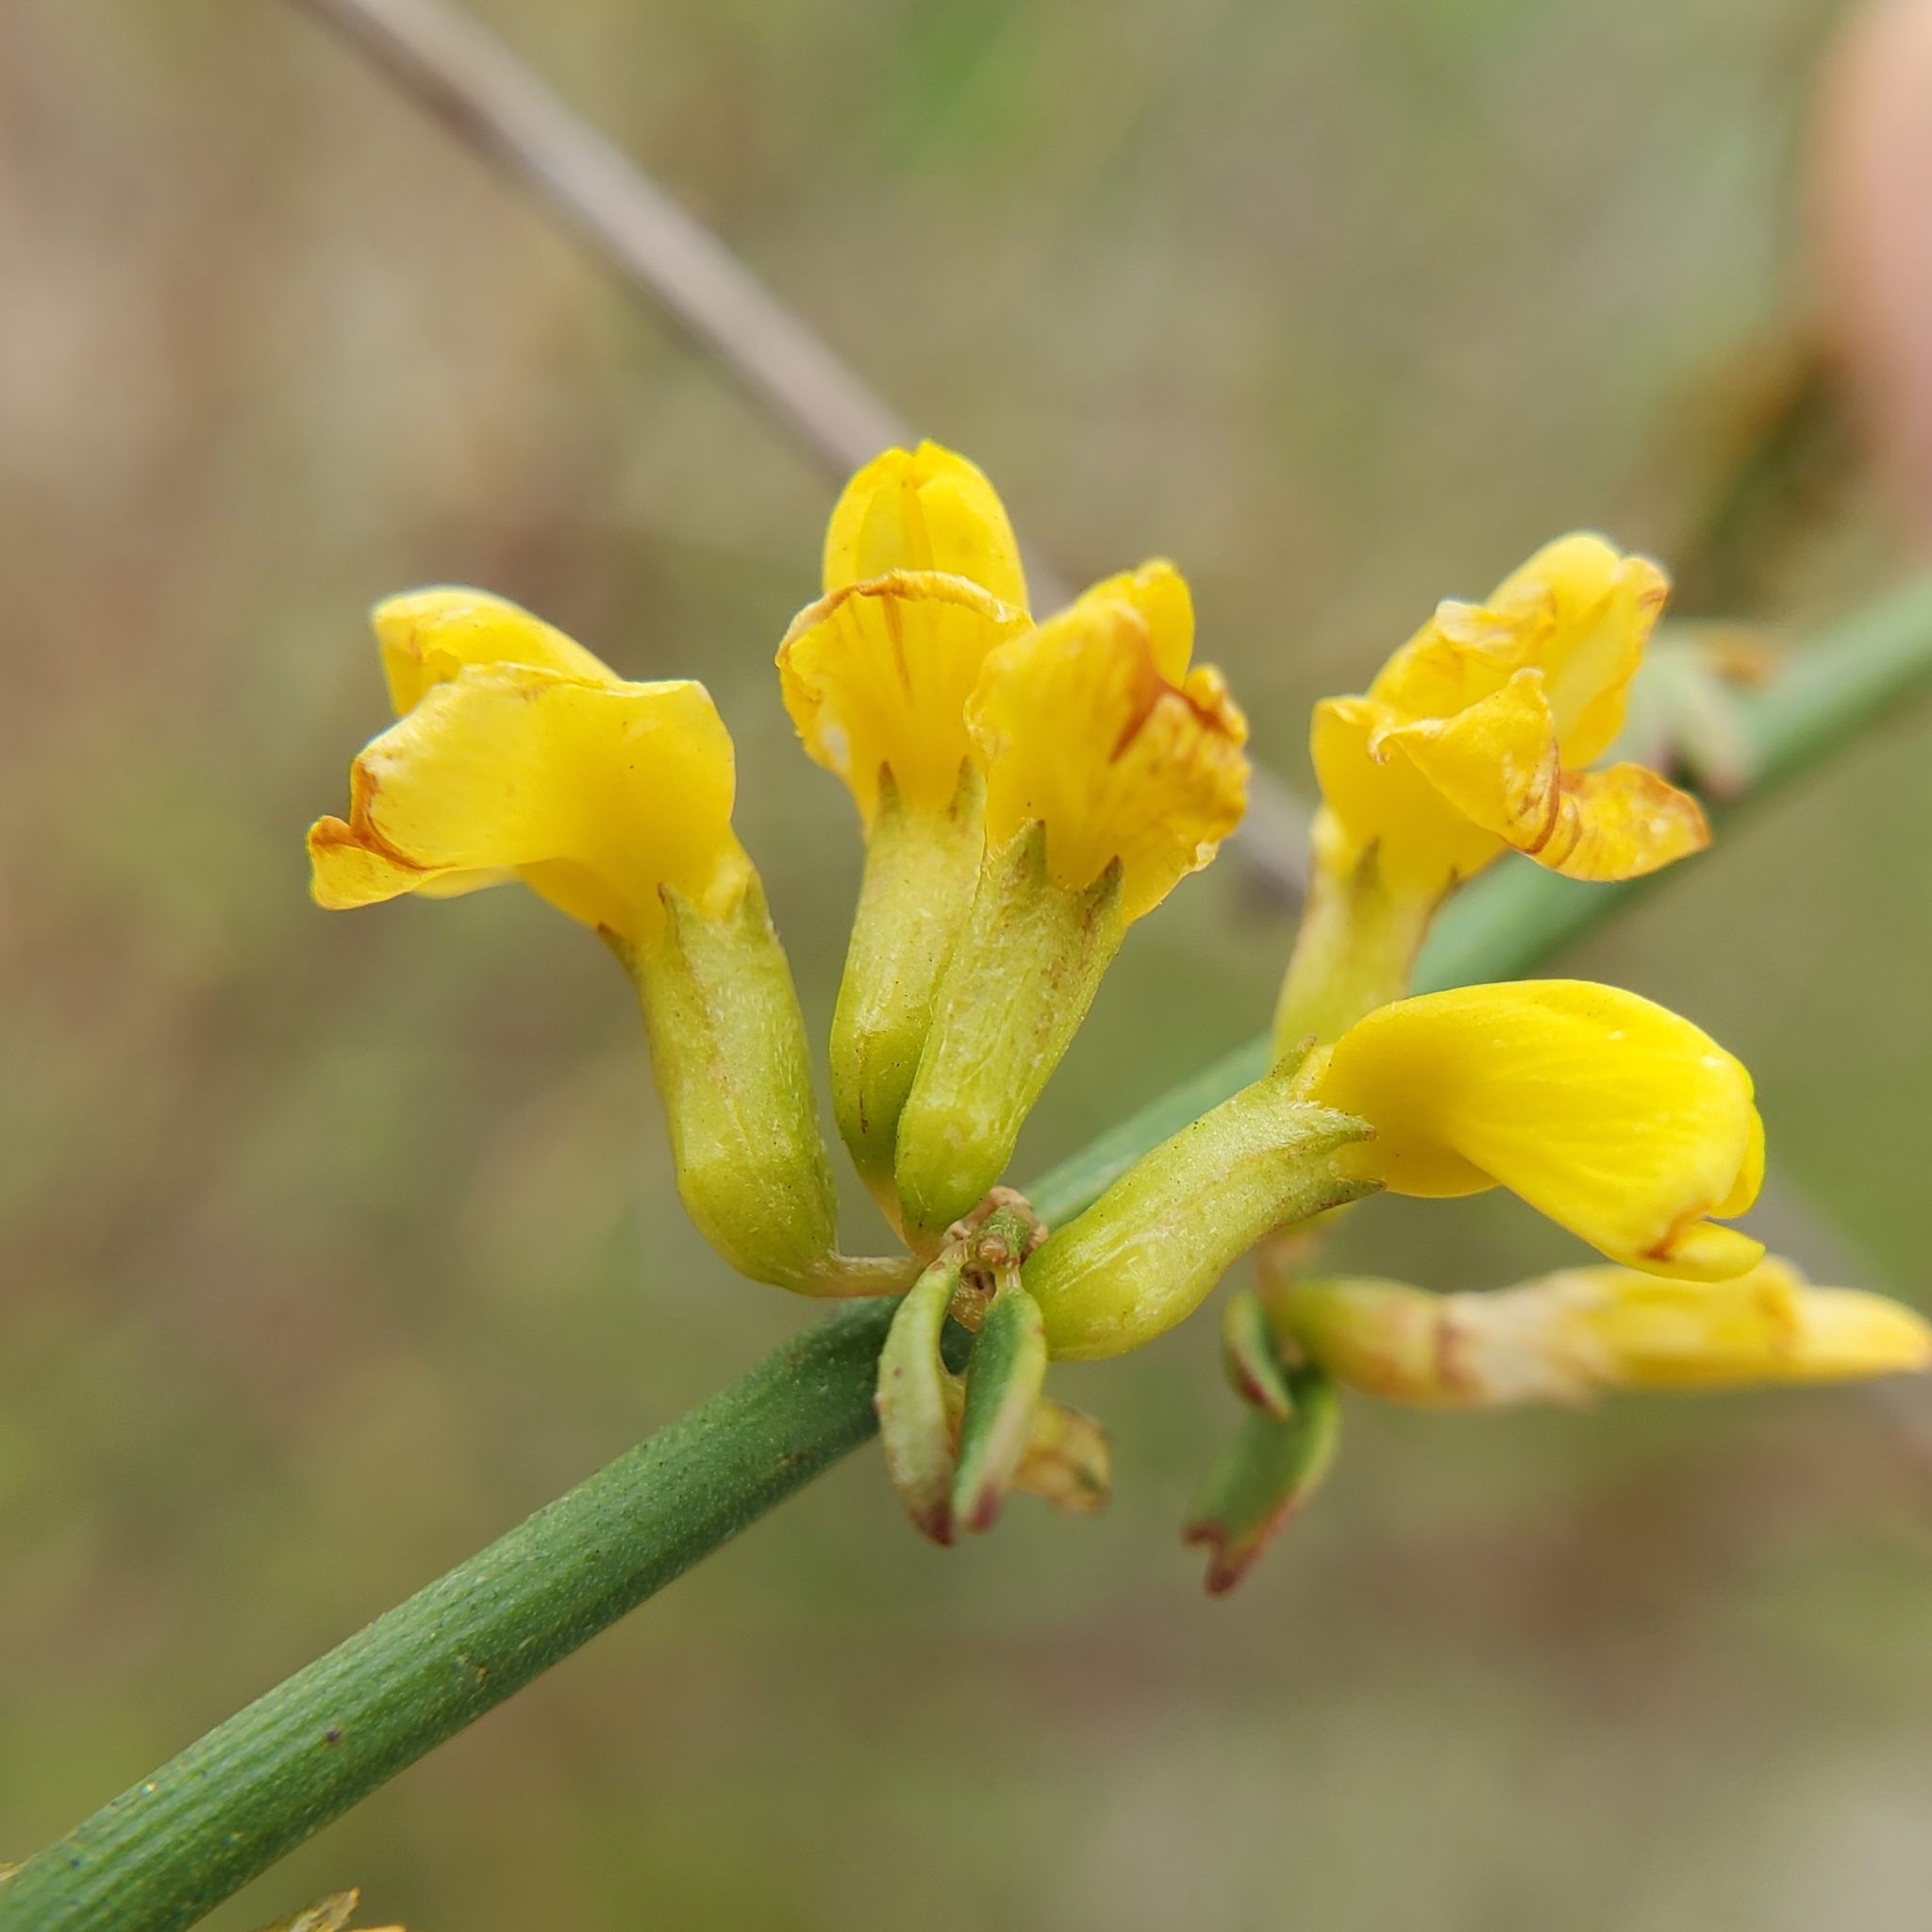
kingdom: Plantae
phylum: Tracheophyta
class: Magnoliopsida
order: Fabales
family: Fabaceae
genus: Acmispon
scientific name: Acmispon glaber
